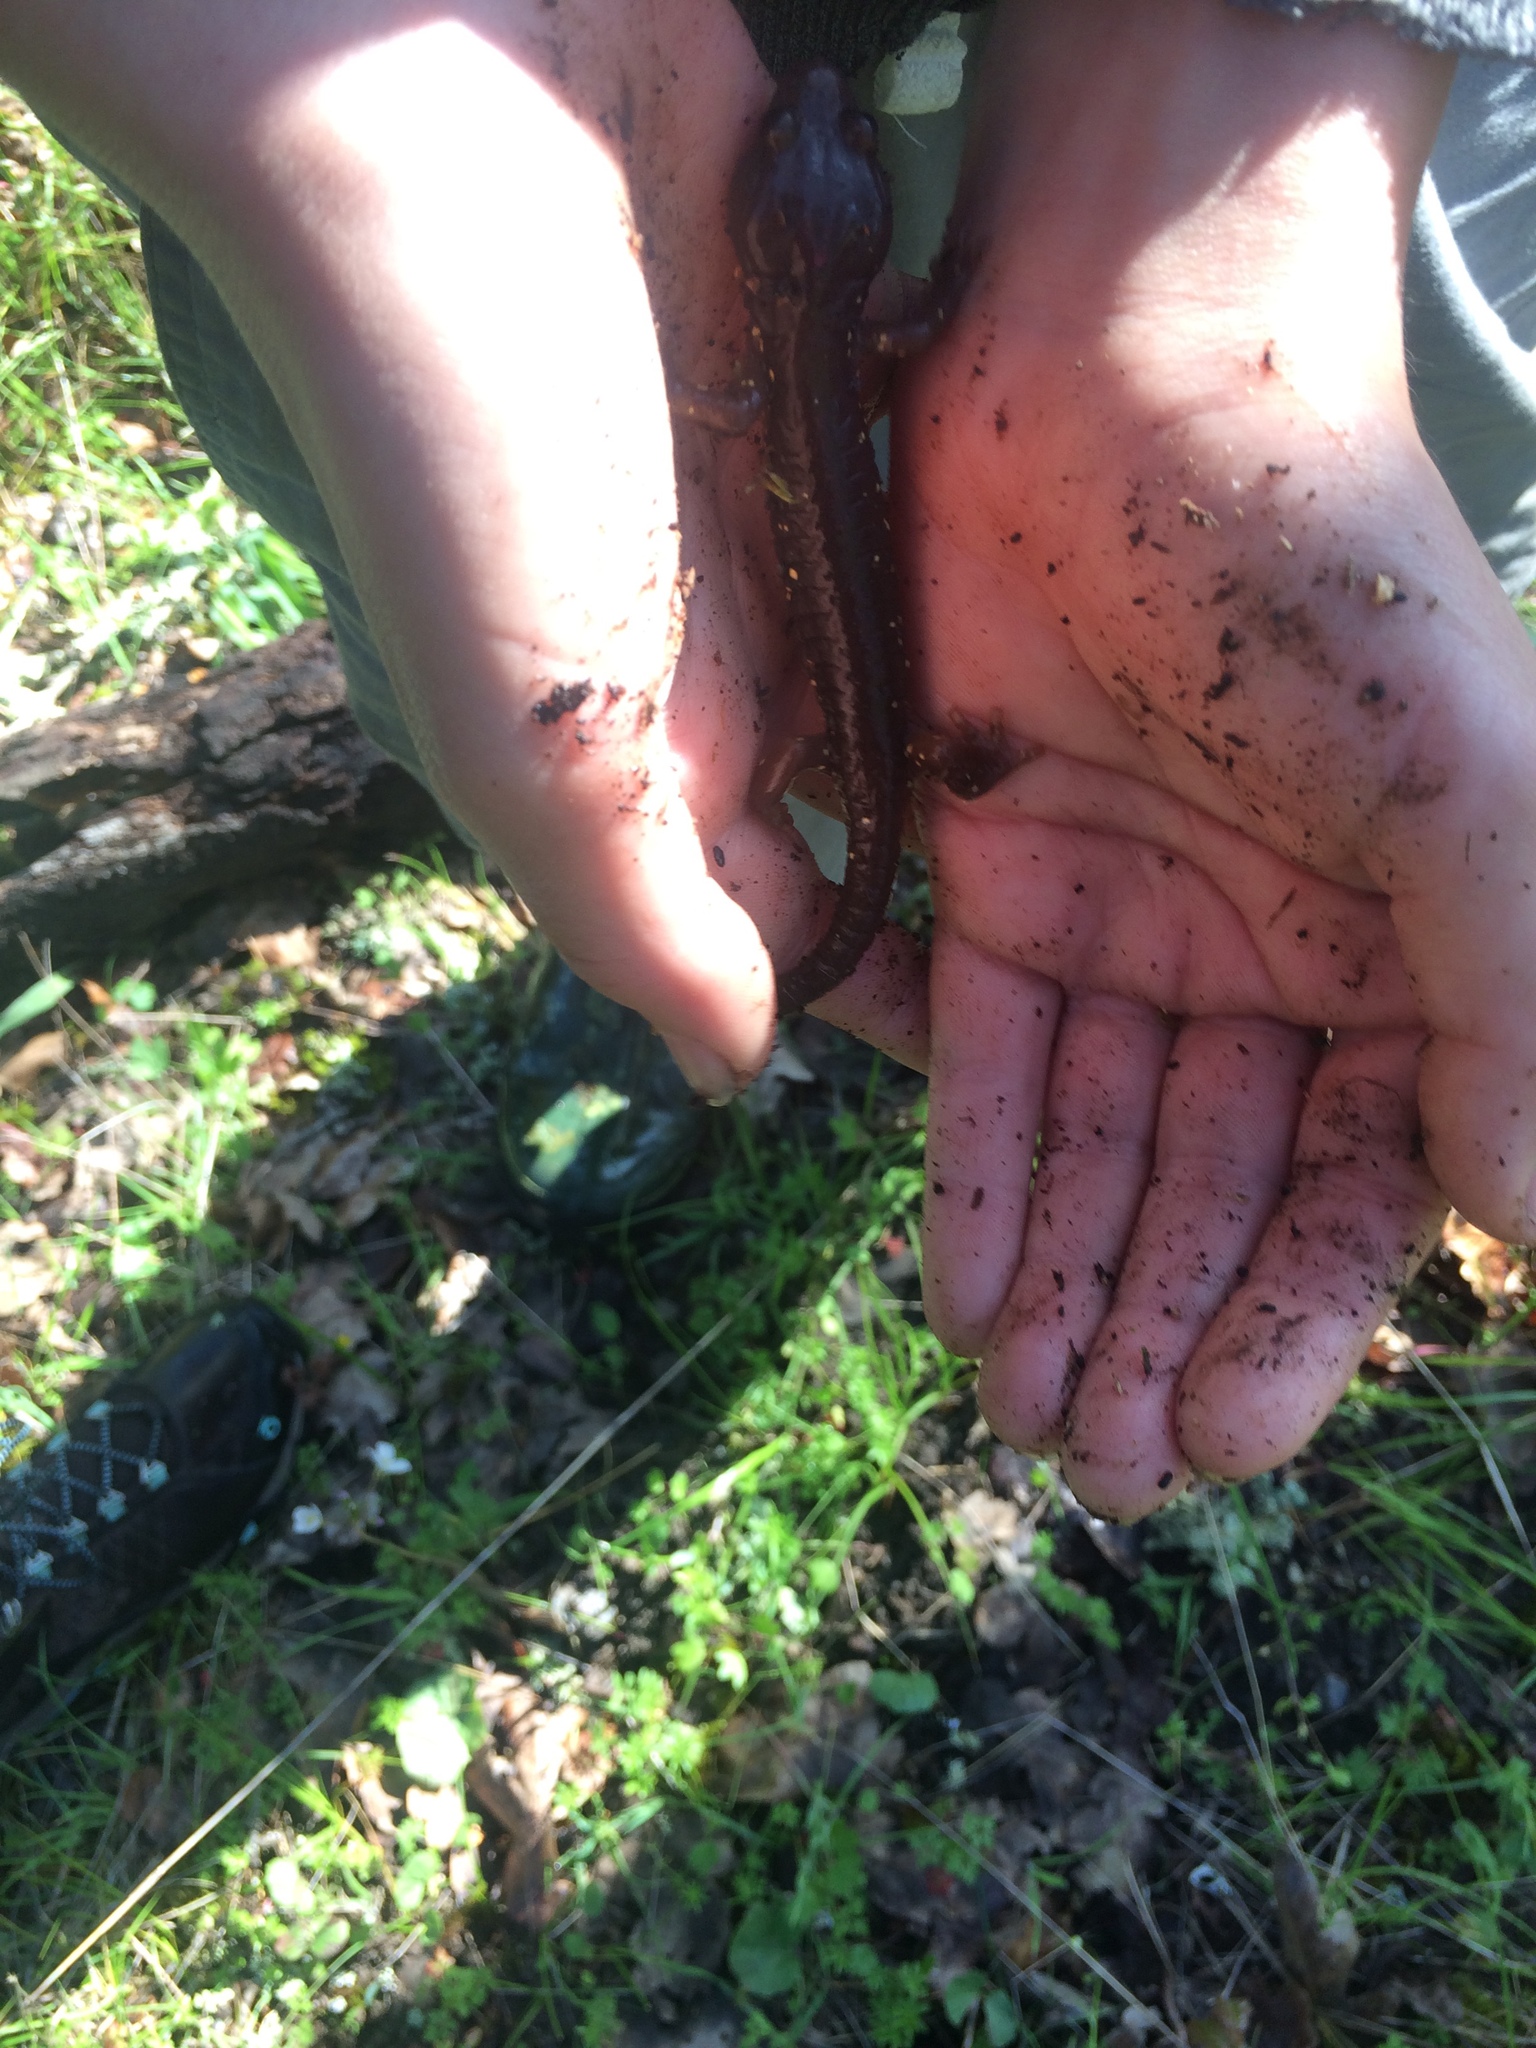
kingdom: Animalia
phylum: Chordata
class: Amphibia
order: Caudata
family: Plethodontidae
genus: Aneides
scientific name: Aneides lugubris
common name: Arboreal salamander
